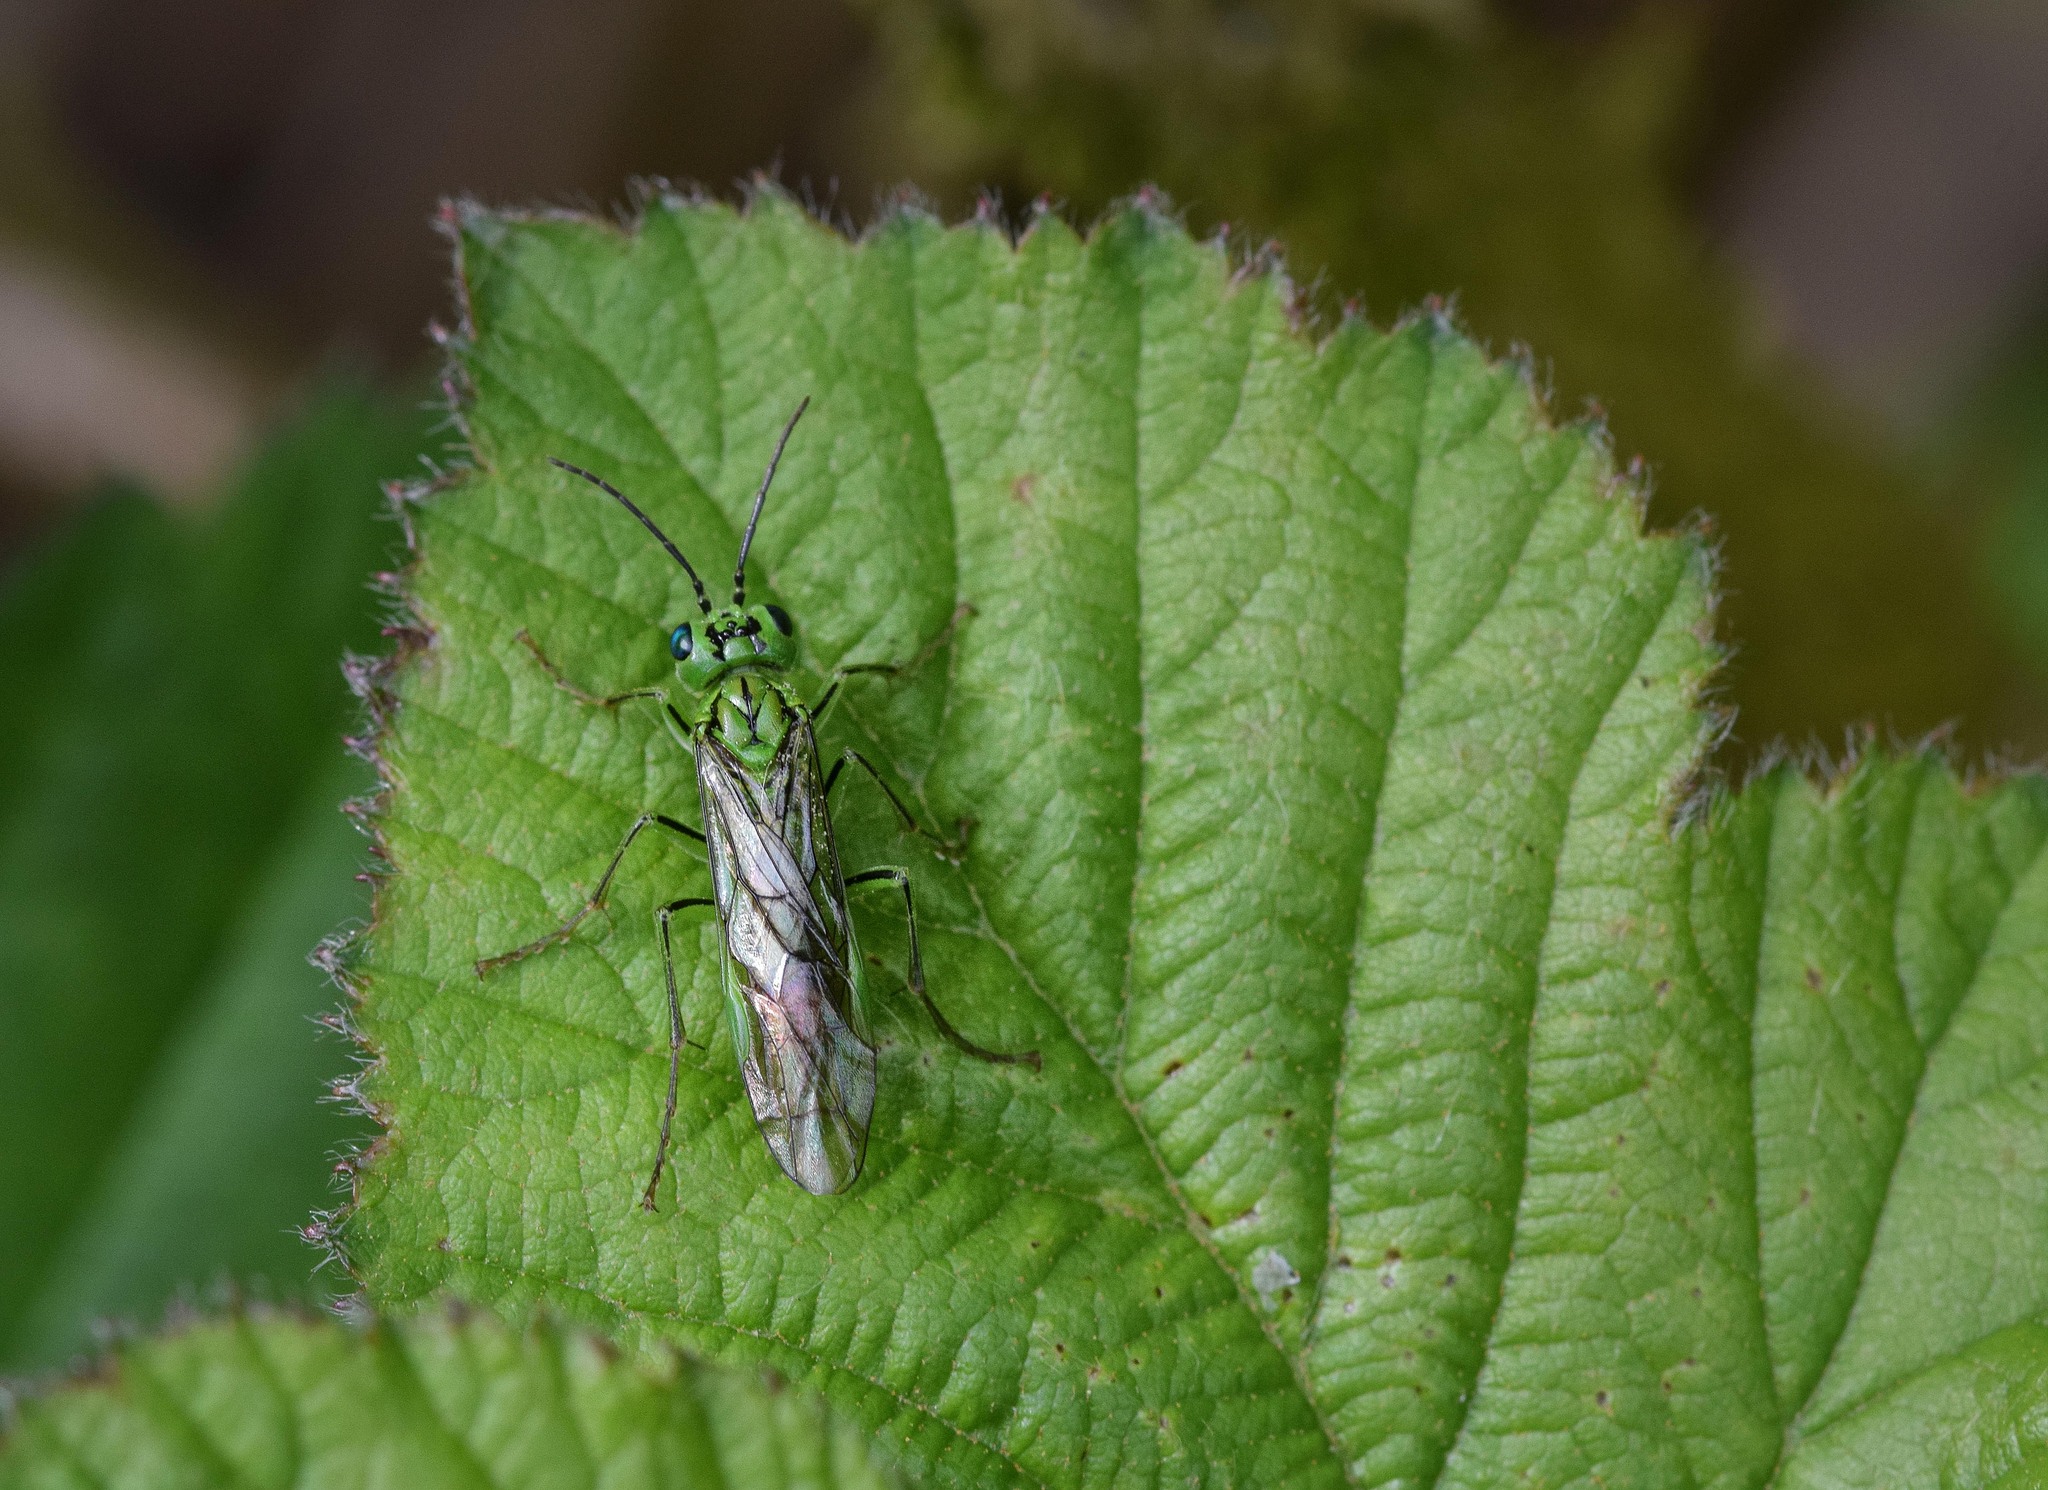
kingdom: Animalia
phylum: Arthropoda
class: Insecta
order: Hymenoptera
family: Tenthredinidae
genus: Tenthredo
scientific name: Tenthredo olivacea
